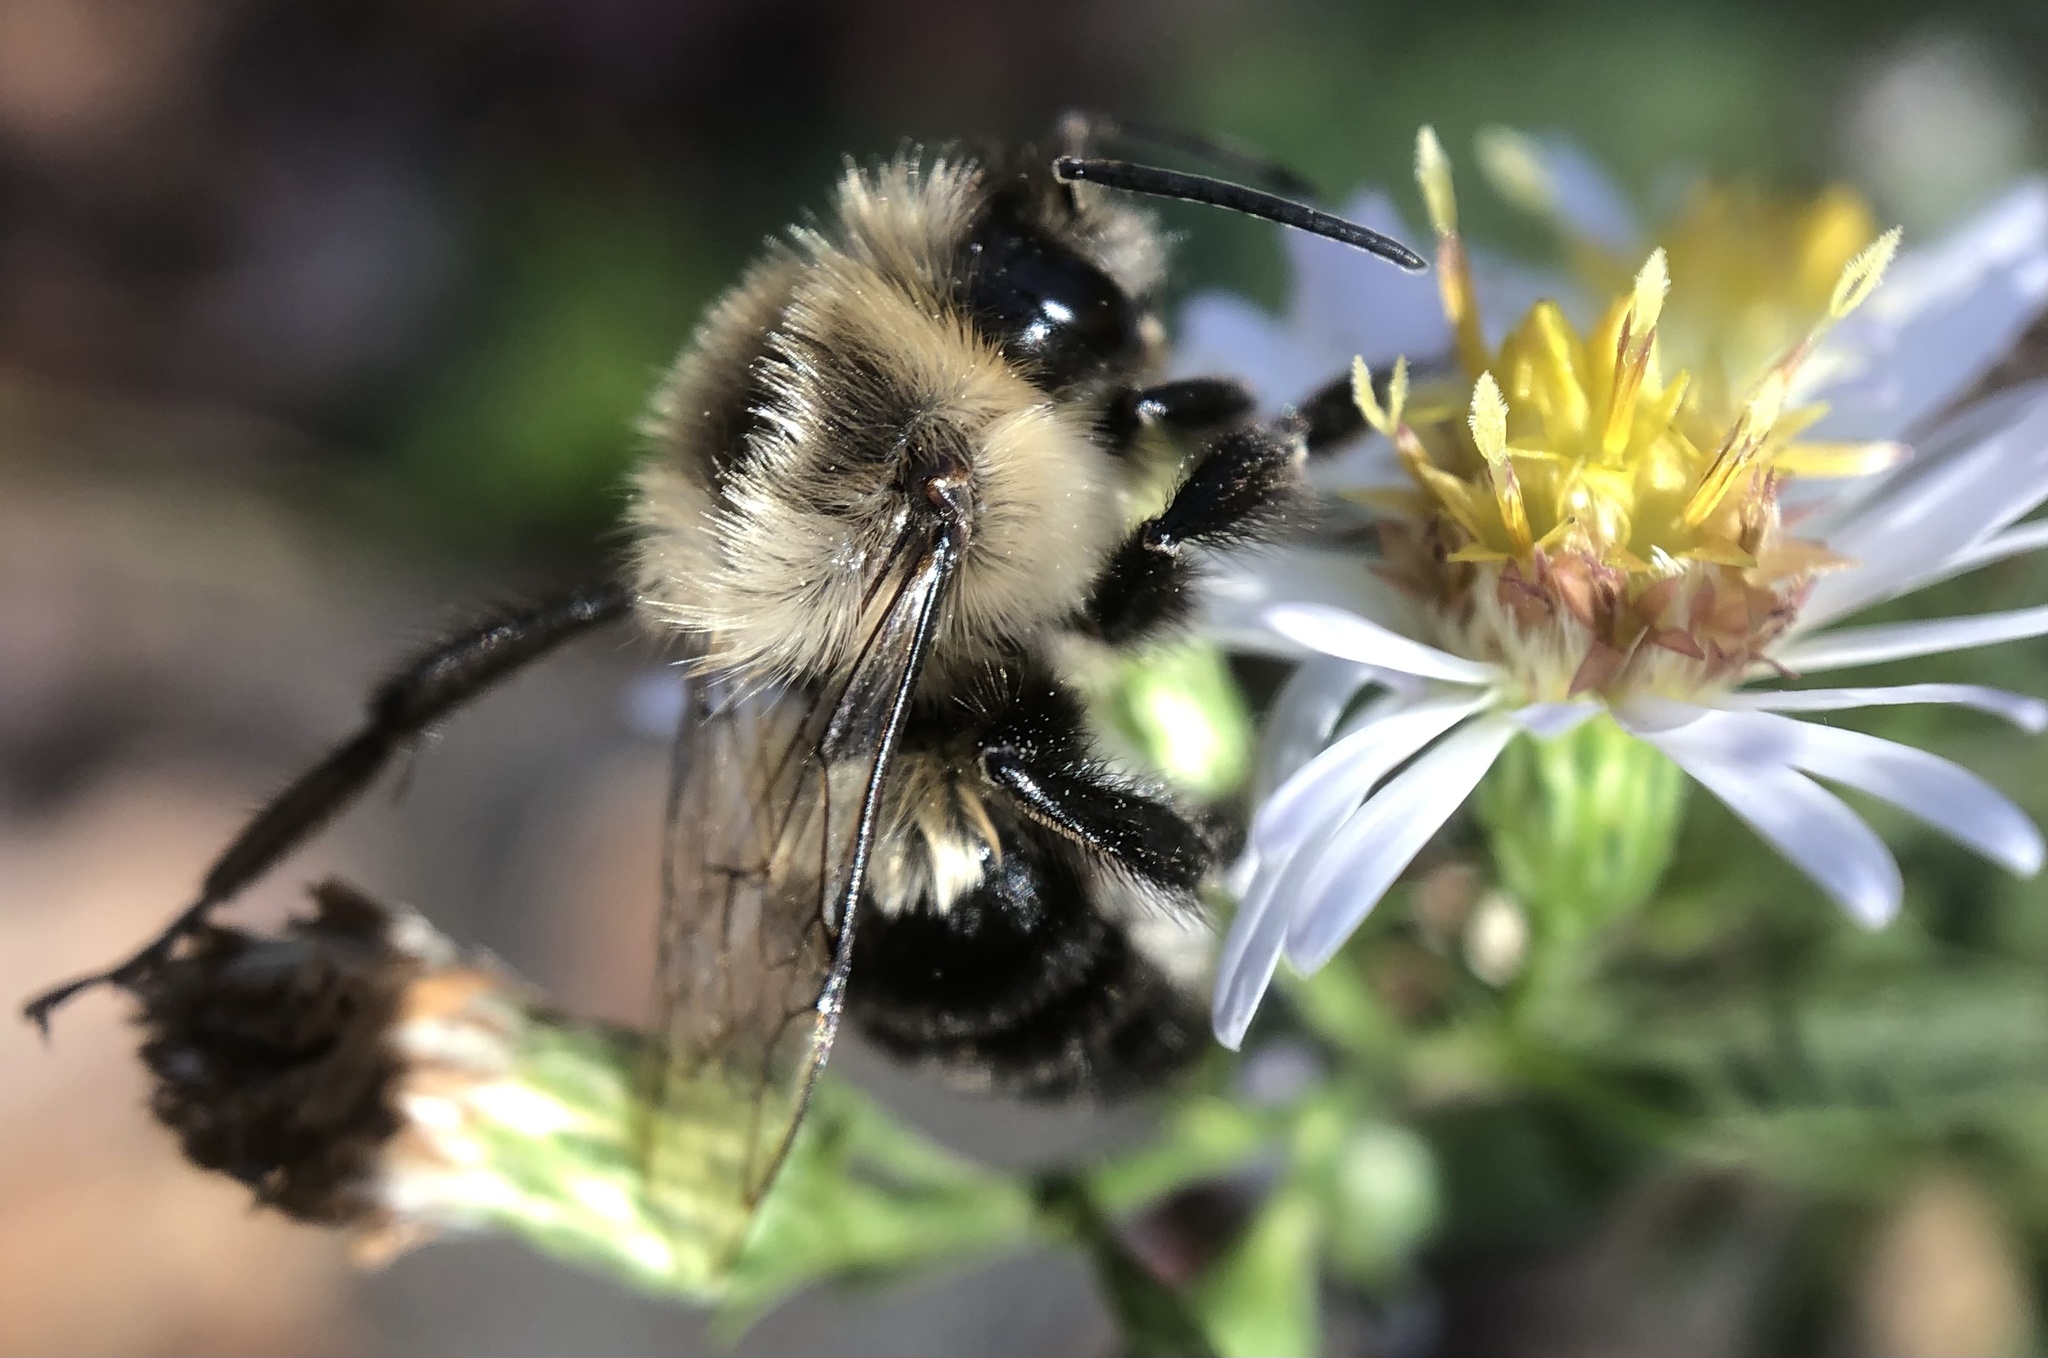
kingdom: Animalia
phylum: Arthropoda
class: Insecta
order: Hymenoptera
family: Apidae
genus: Bombus
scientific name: Bombus impatiens
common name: Common eastern bumble bee
